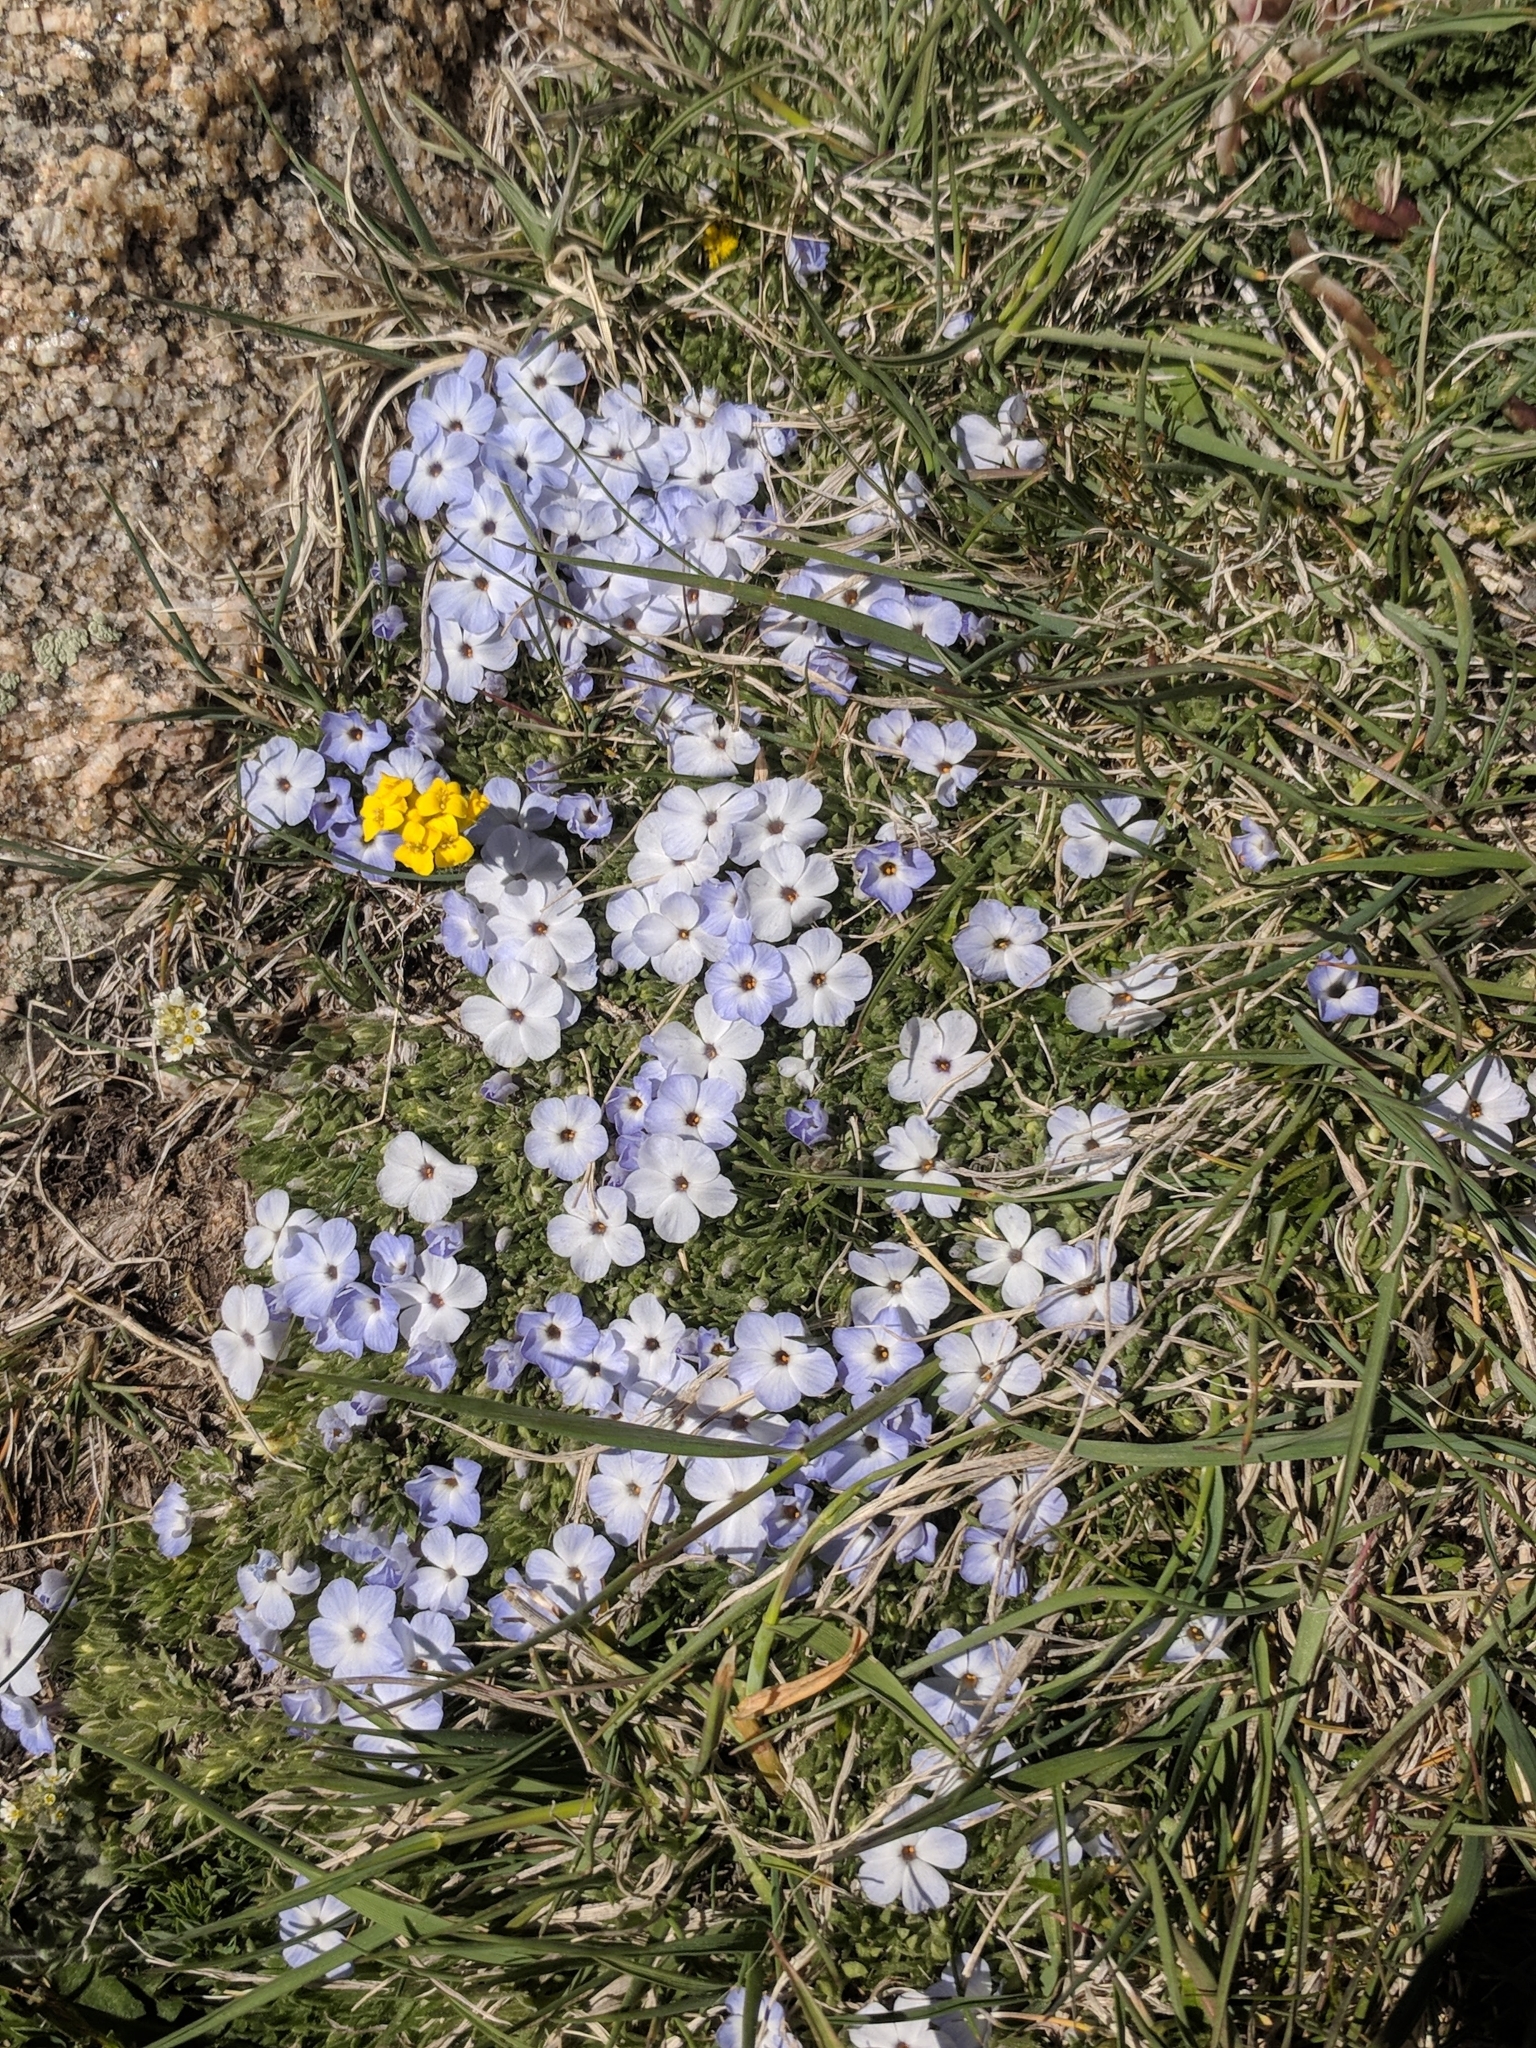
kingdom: Plantae
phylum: Tracheophyta
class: Magnoliopsida
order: Ericales
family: Polemoniaceae
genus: Phlox
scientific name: Phlox condensata
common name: Compact phlox
